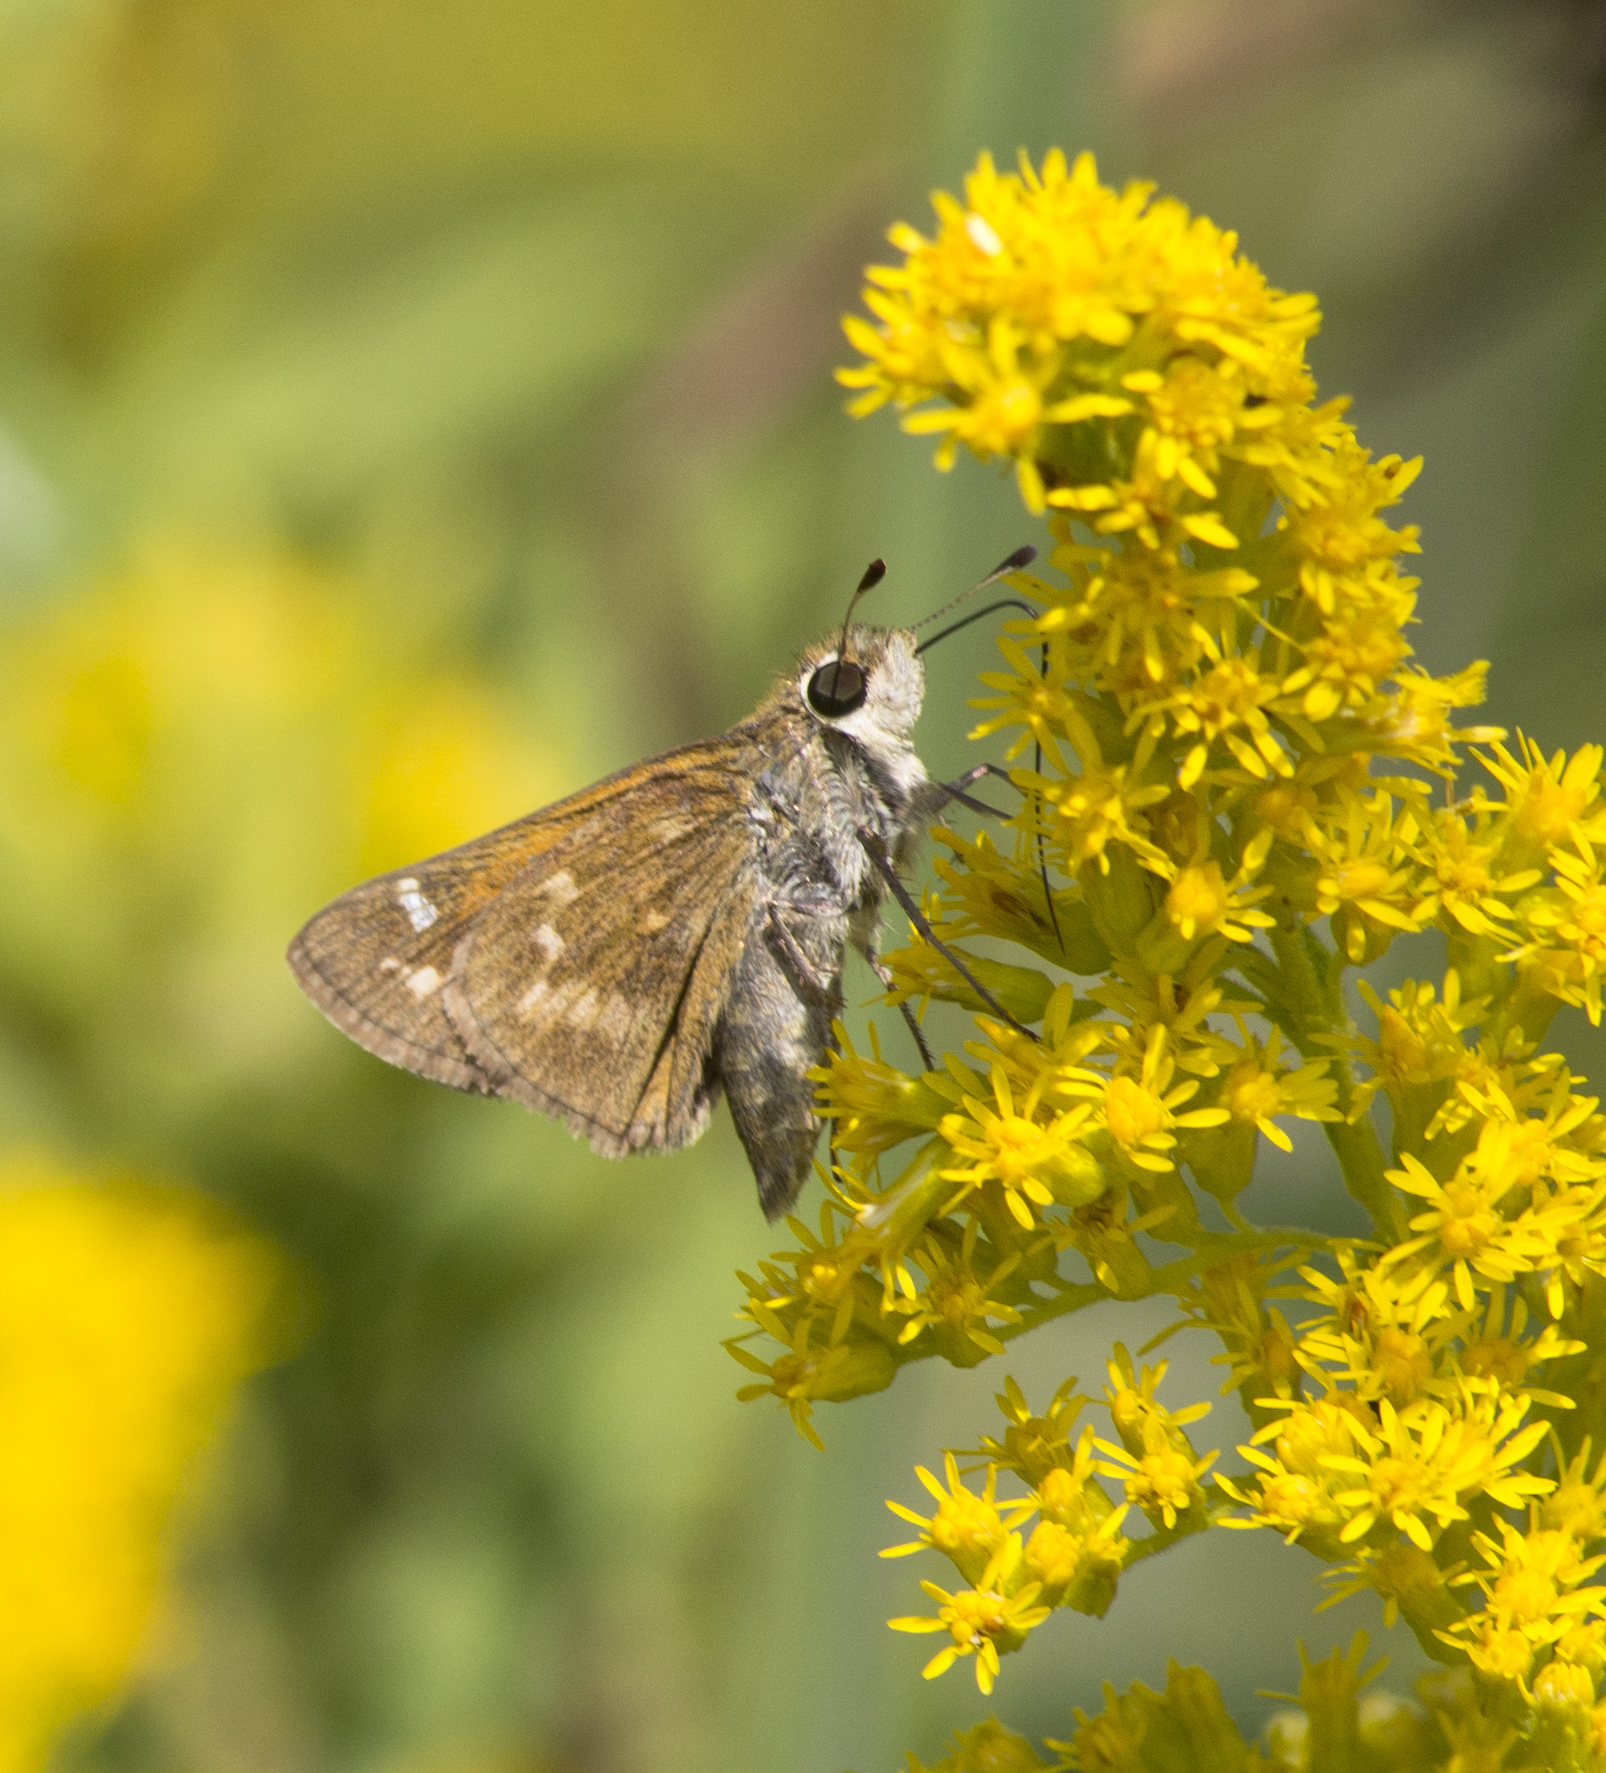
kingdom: Animalia
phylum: Arthropoda
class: Insecta
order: Lepidoptera
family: Hesperiidae
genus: Atalopedes
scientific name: Atalopedes
